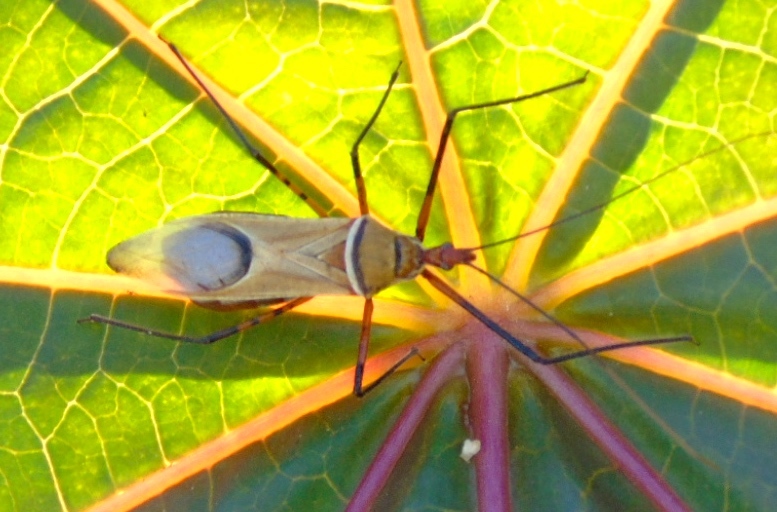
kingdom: Animalia
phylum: Arthropoda
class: Insecta
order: Hemiptera
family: Reduviidae
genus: Zelus
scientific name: Zelus grassans
